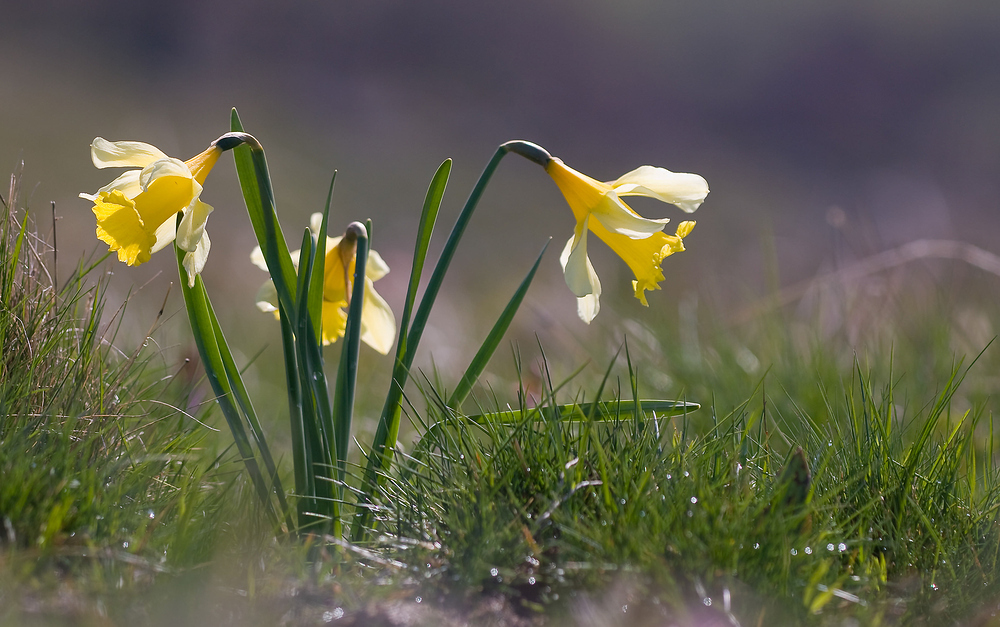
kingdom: Plantae
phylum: Tracheophyta
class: Liliopsida
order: Asparagales
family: Amaryllidaceae
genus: Narcissus
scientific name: Narcissus pseudonarcissus
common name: Daffodil
